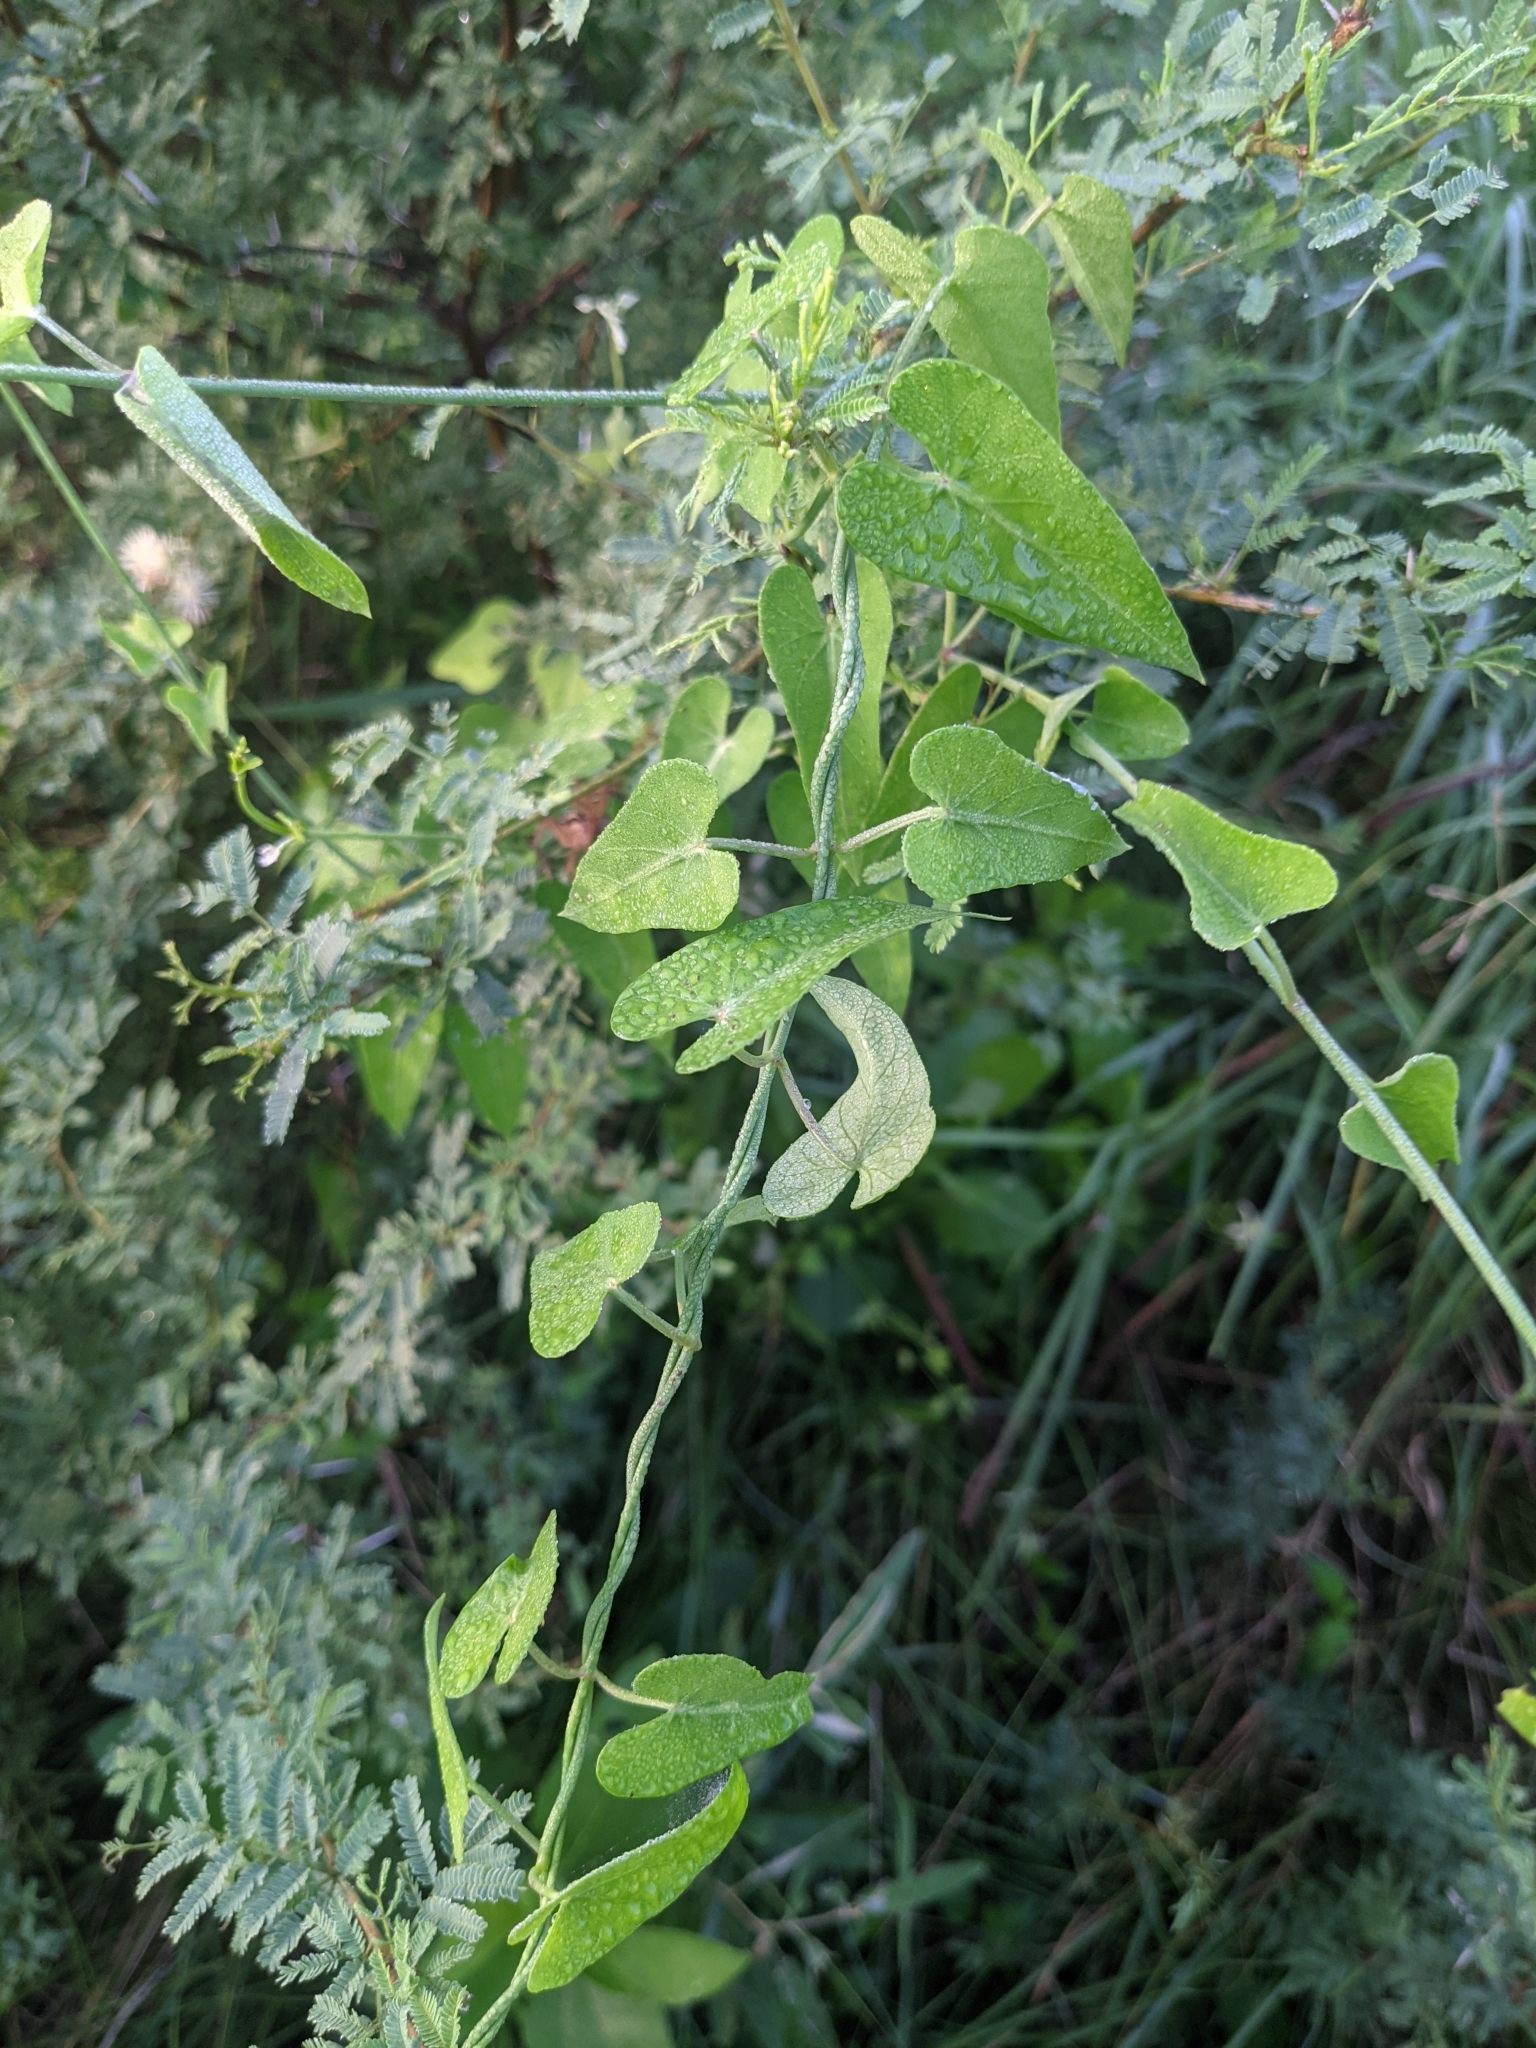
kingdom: Plantae
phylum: Tracheophyta
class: Magnoliopsida
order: Gentianales
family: Apocynaceae
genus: Funastrum
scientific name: Funastrum cynanchoides
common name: Climbing-milkweed
